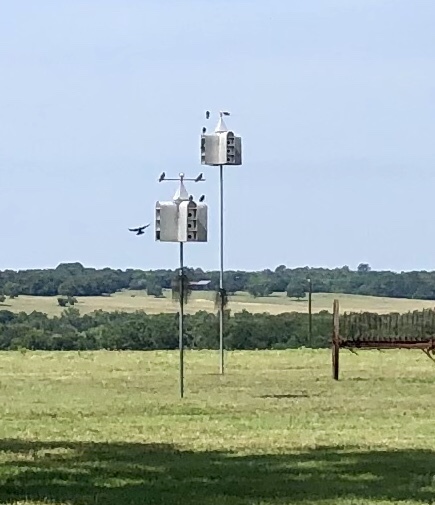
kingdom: Animalia
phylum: Chordata
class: Aves
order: Passeriformes
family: Hirundinidae
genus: Progne
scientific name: Progne subis
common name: Purple martin
